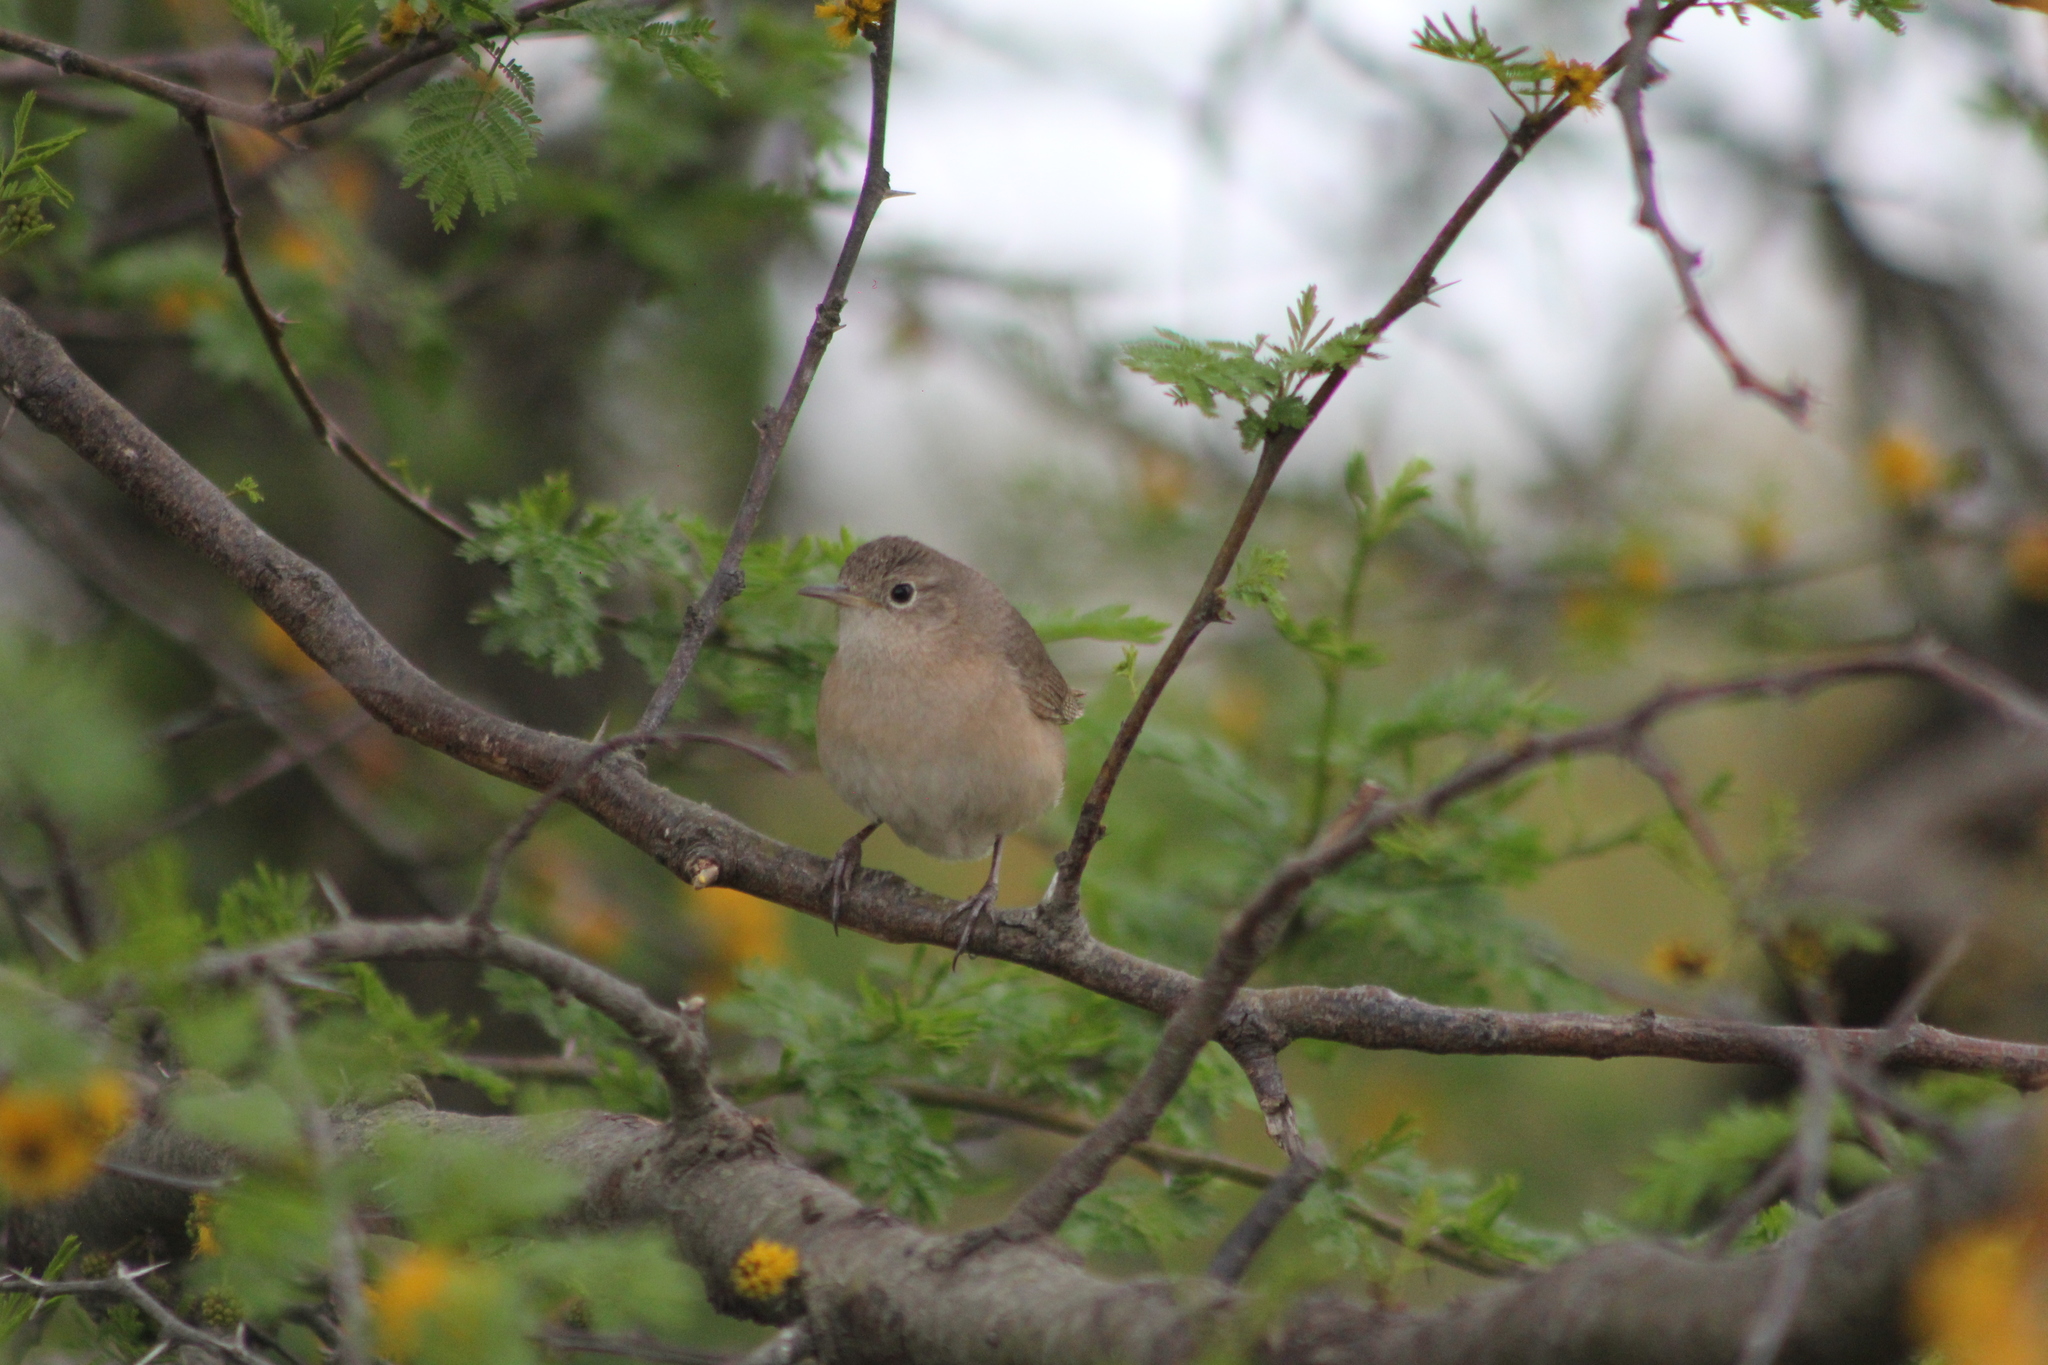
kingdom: Animalia
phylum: Chordata
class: Aves
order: Passeriformes
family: Troglodytidae
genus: Troglodytes
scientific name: Troglodytes aedon
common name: House wren
